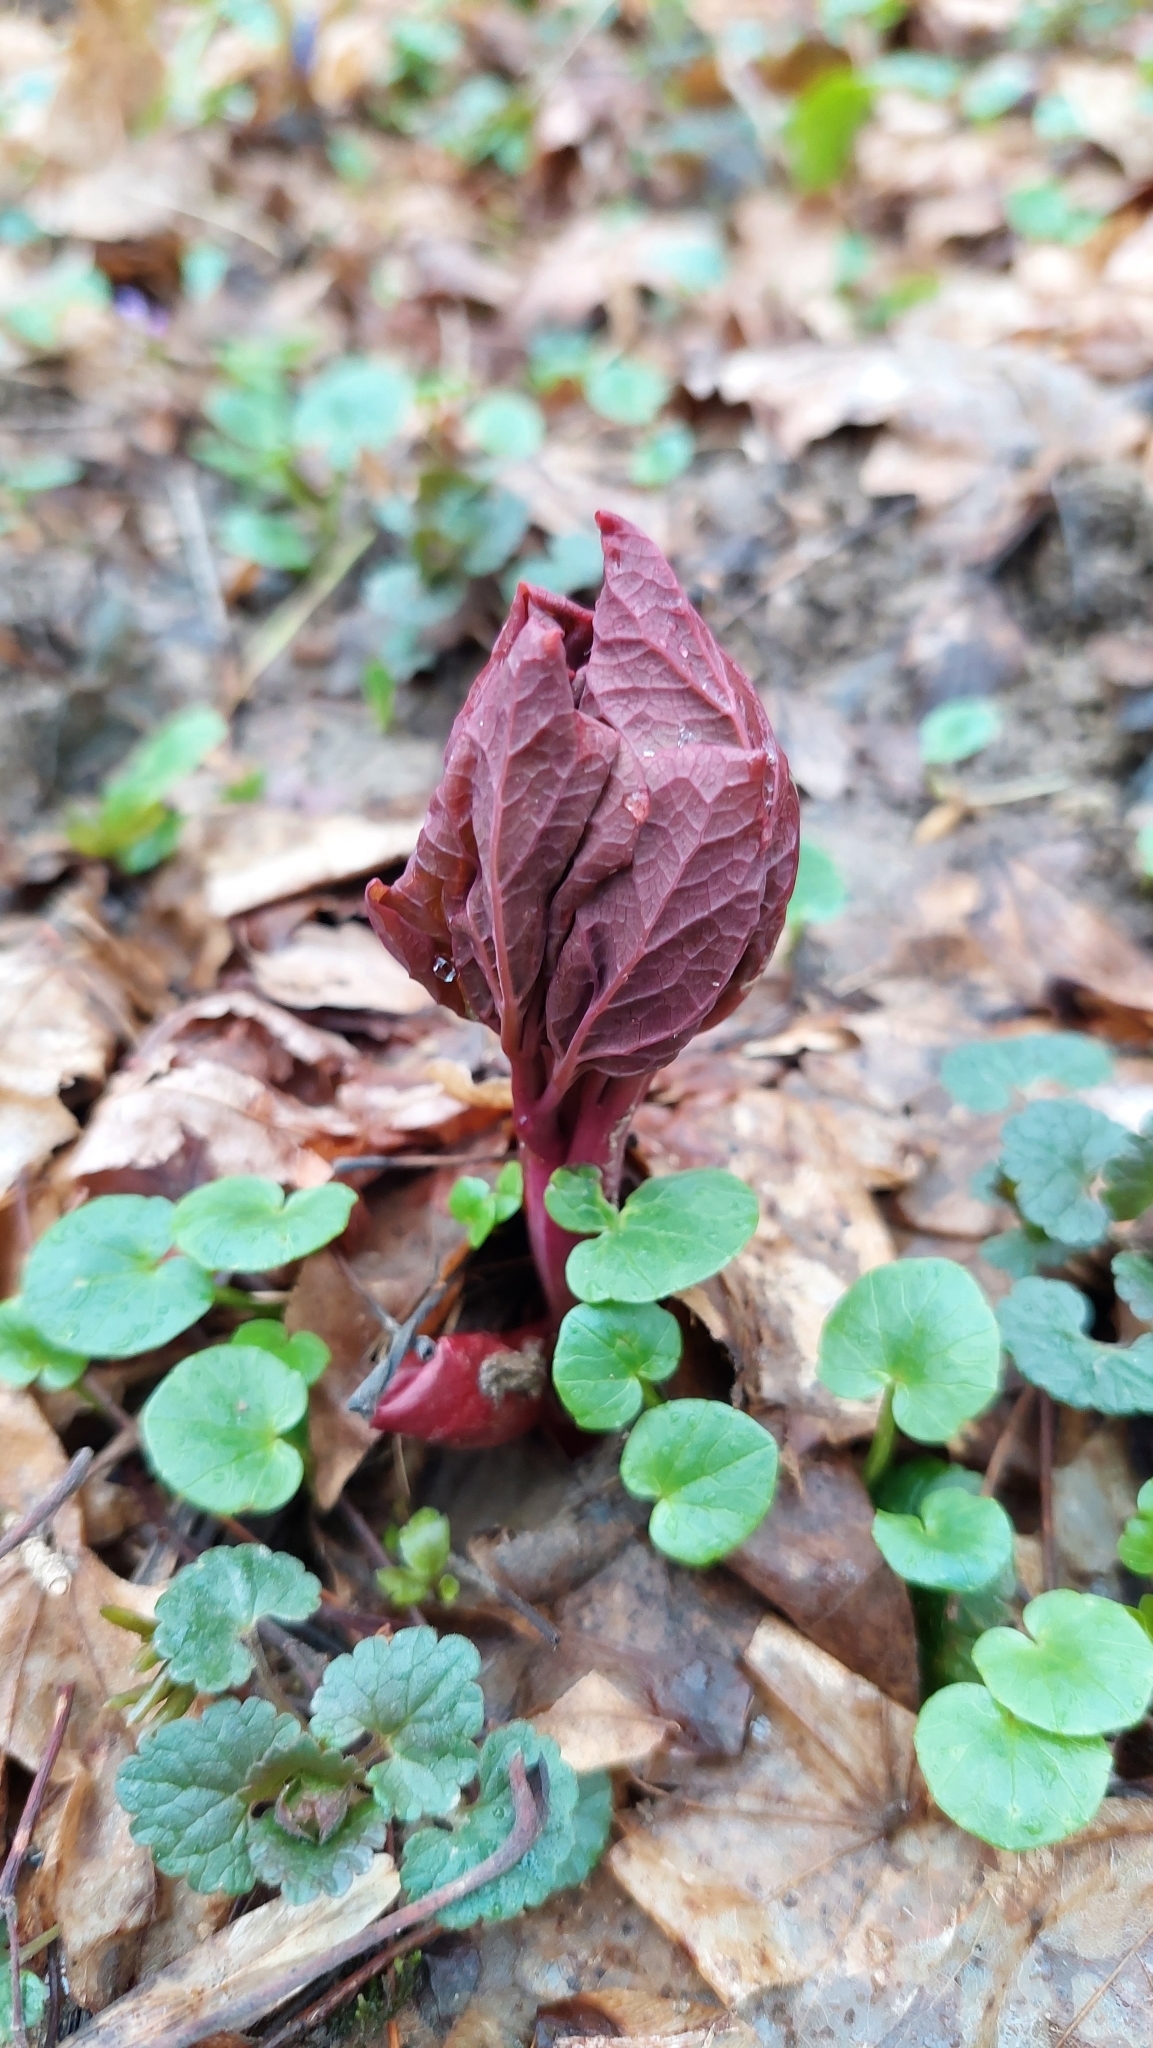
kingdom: Plantae
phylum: Tracheophyta
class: Magnoliopsida
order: Saxifragales
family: Paeoniaceae
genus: Paeonia
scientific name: Paeonia caucasica
